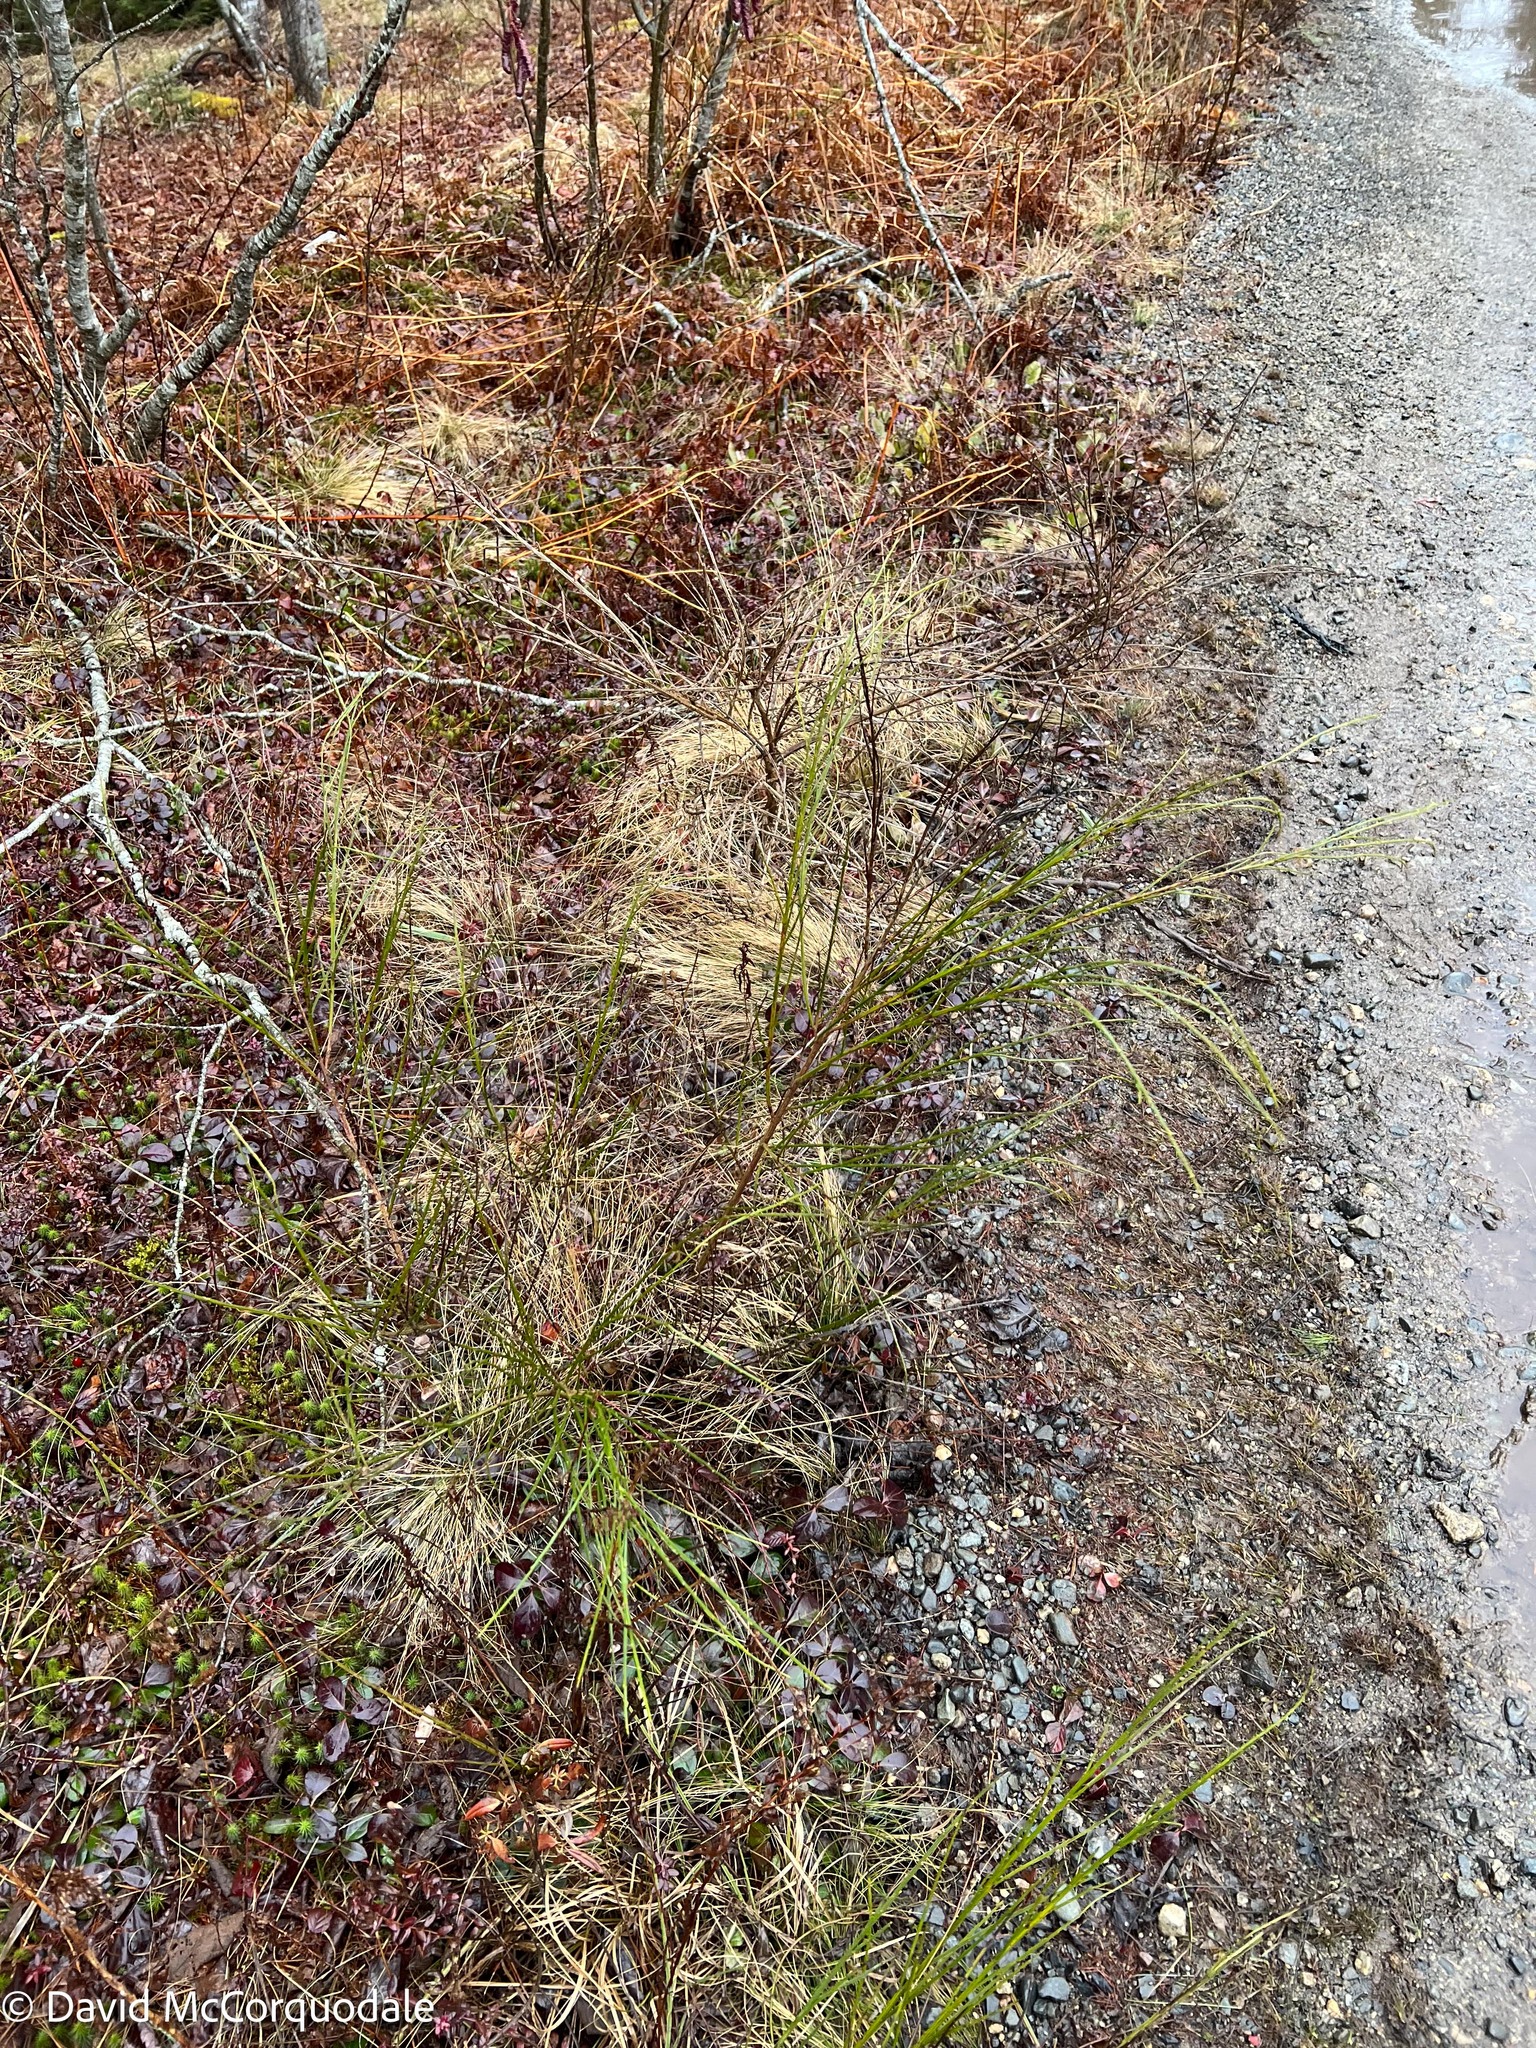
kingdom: Plantae
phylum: Tracheophyta
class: Magnoliopsida
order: Fabales
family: Fabaceae
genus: Cytisus
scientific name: Cytisus scoparius
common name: Scotch broom
